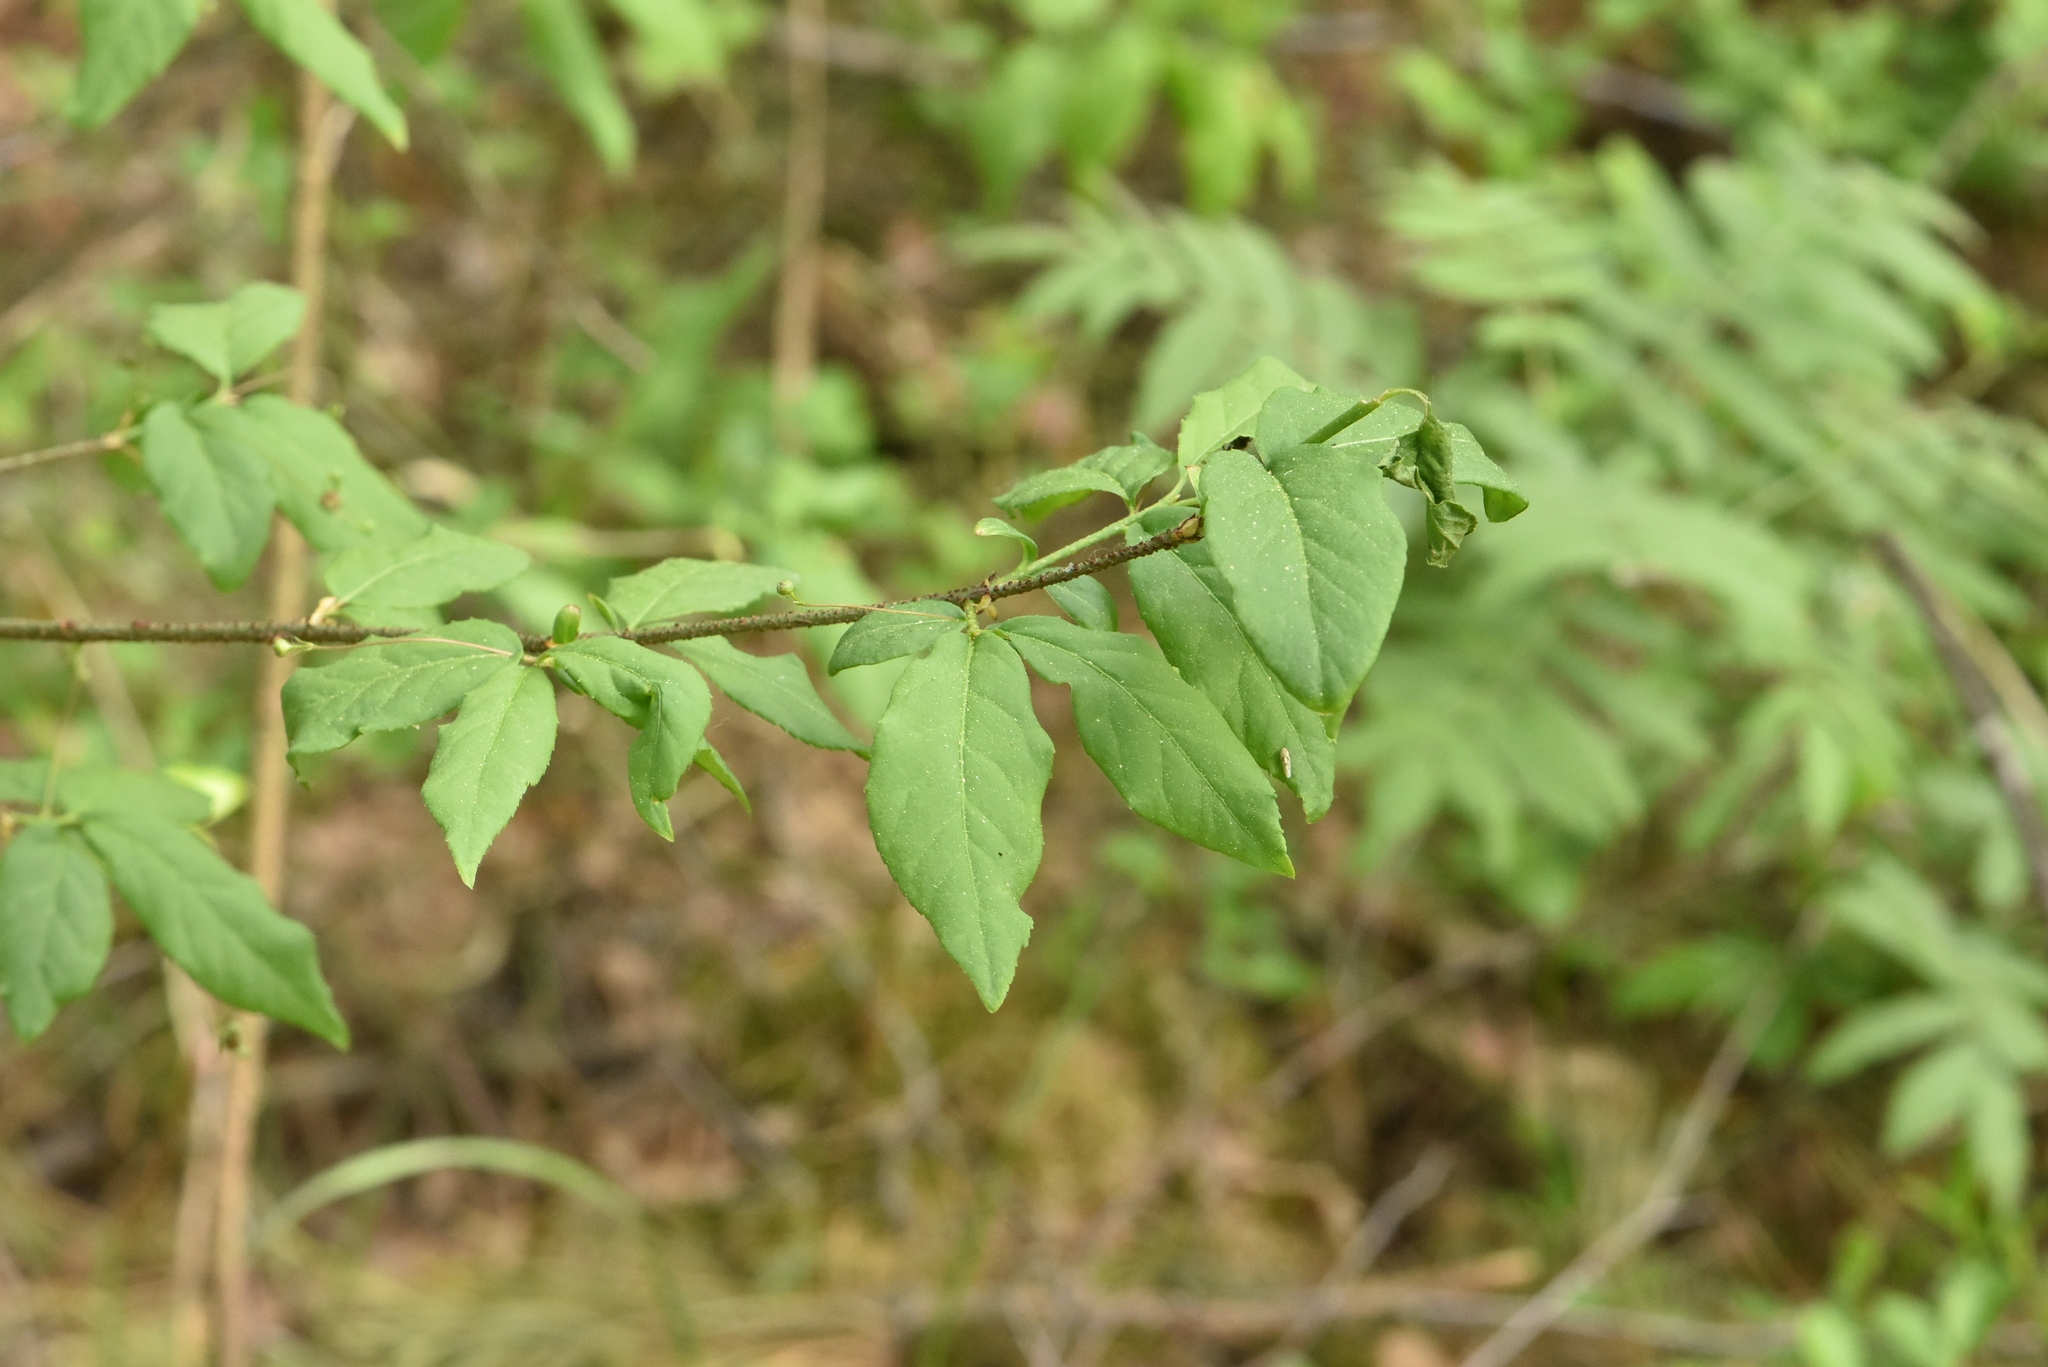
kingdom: Plantae
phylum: Tracheophyta
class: Magnoliopsida
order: Celastrales
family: Celastraceae
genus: Euonymus
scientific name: Euonymus verrucosus
